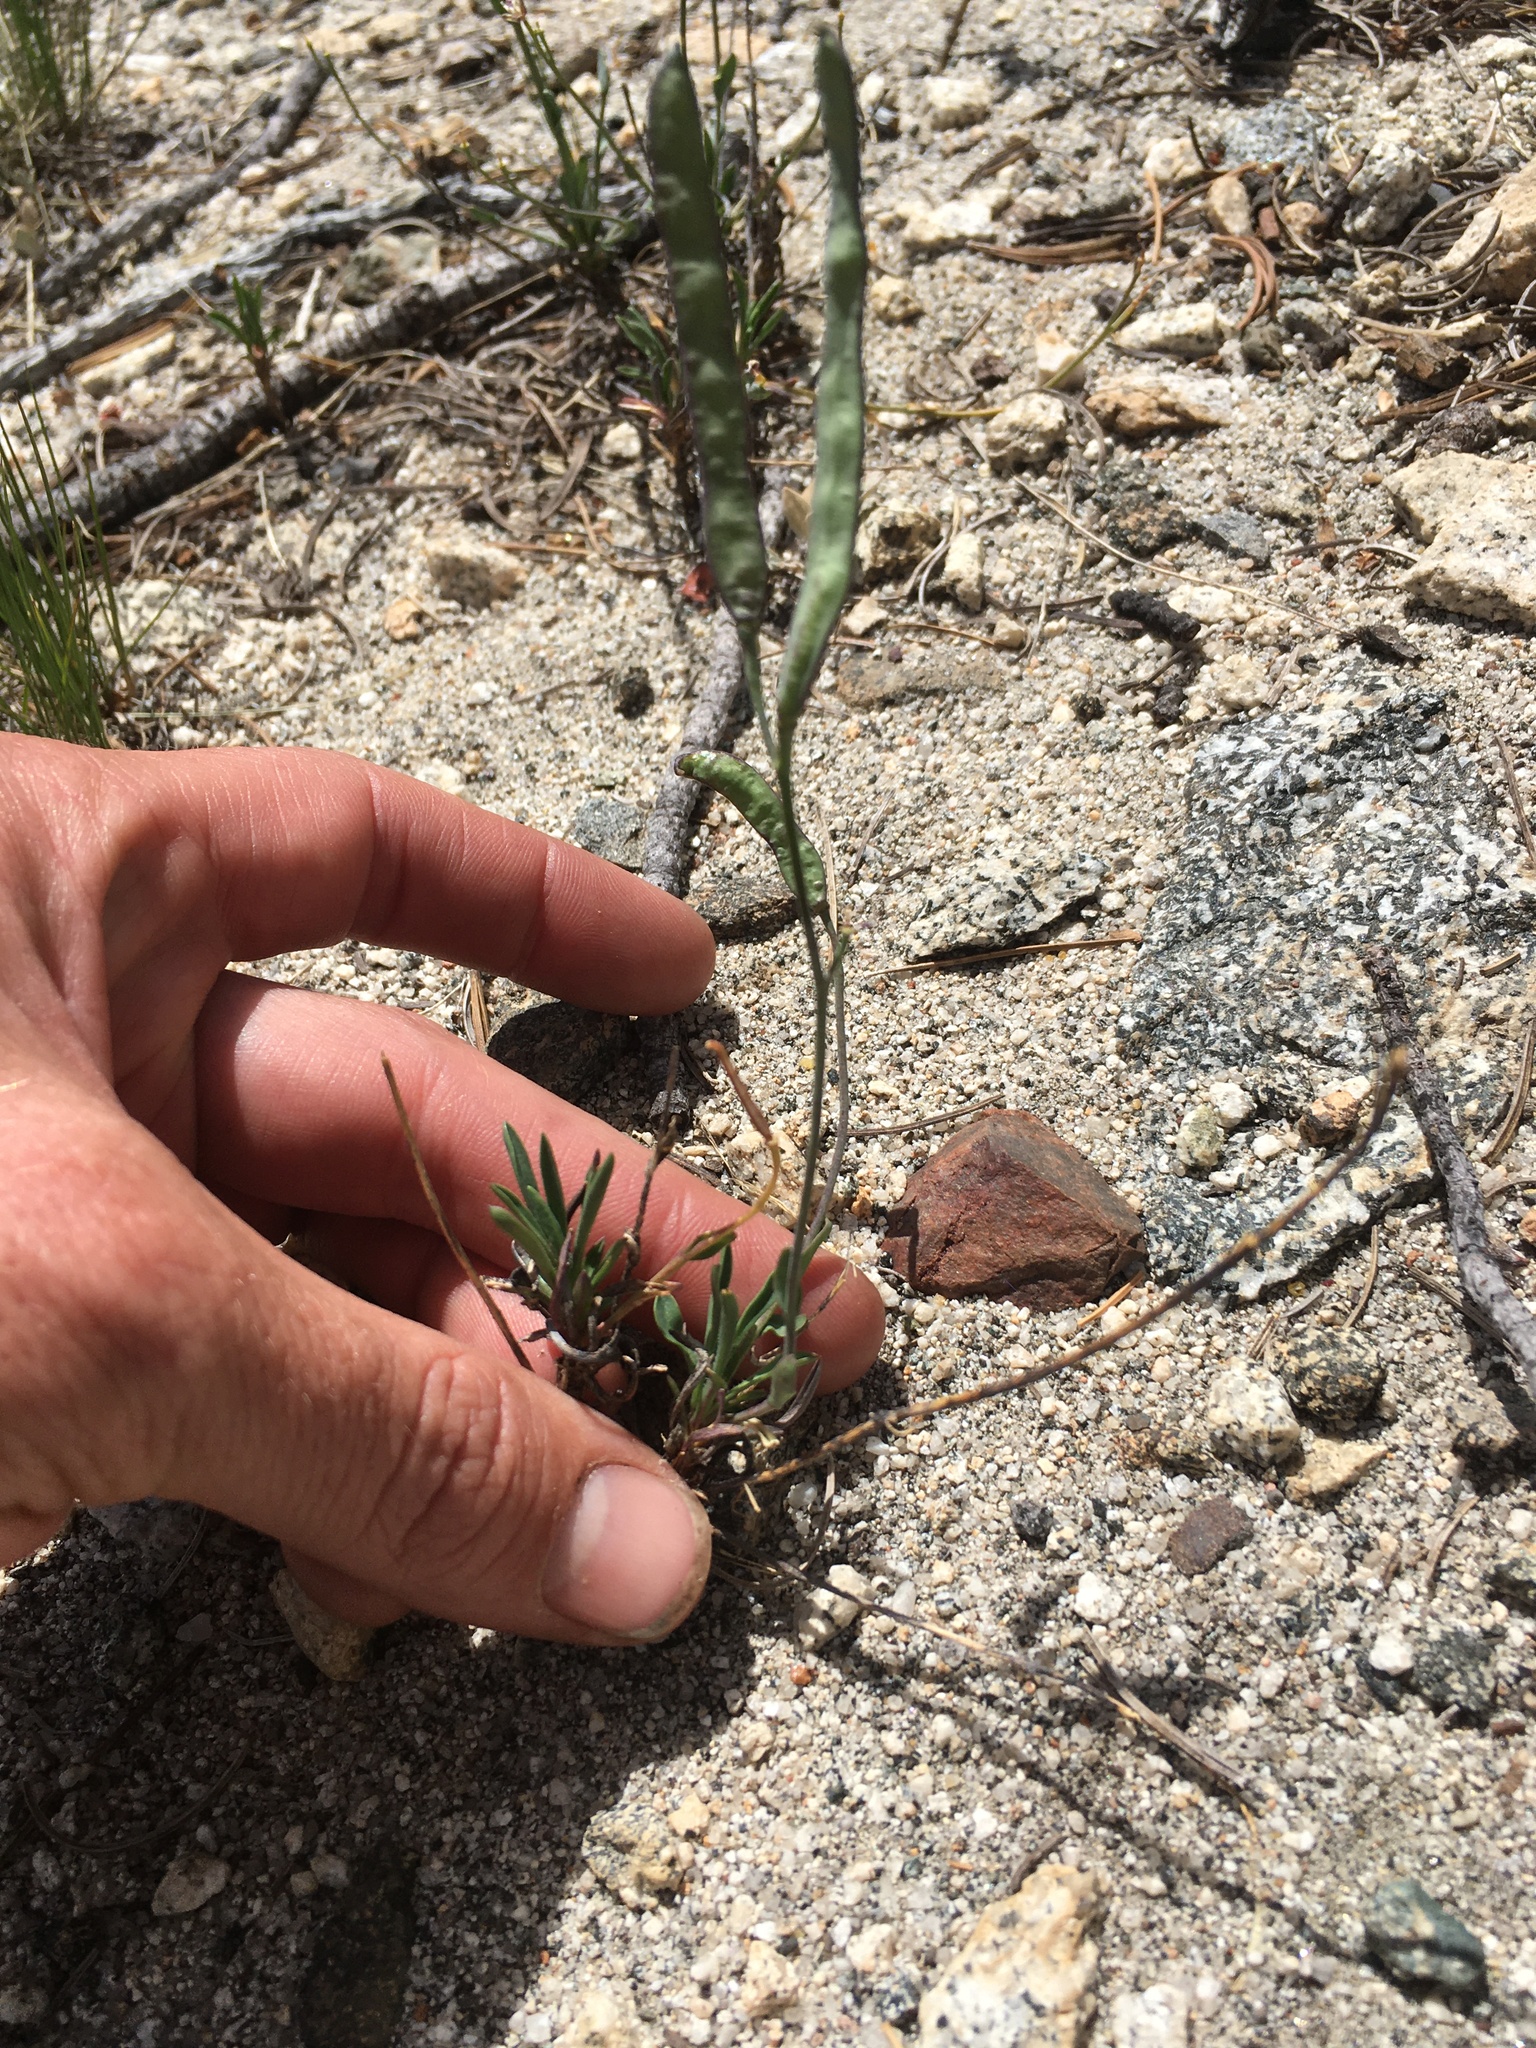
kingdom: Plantae
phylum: Tracheophyta
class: Magnoliopsida
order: Brassicales
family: Brassicaceae
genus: Boechera
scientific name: Boechera howellii
